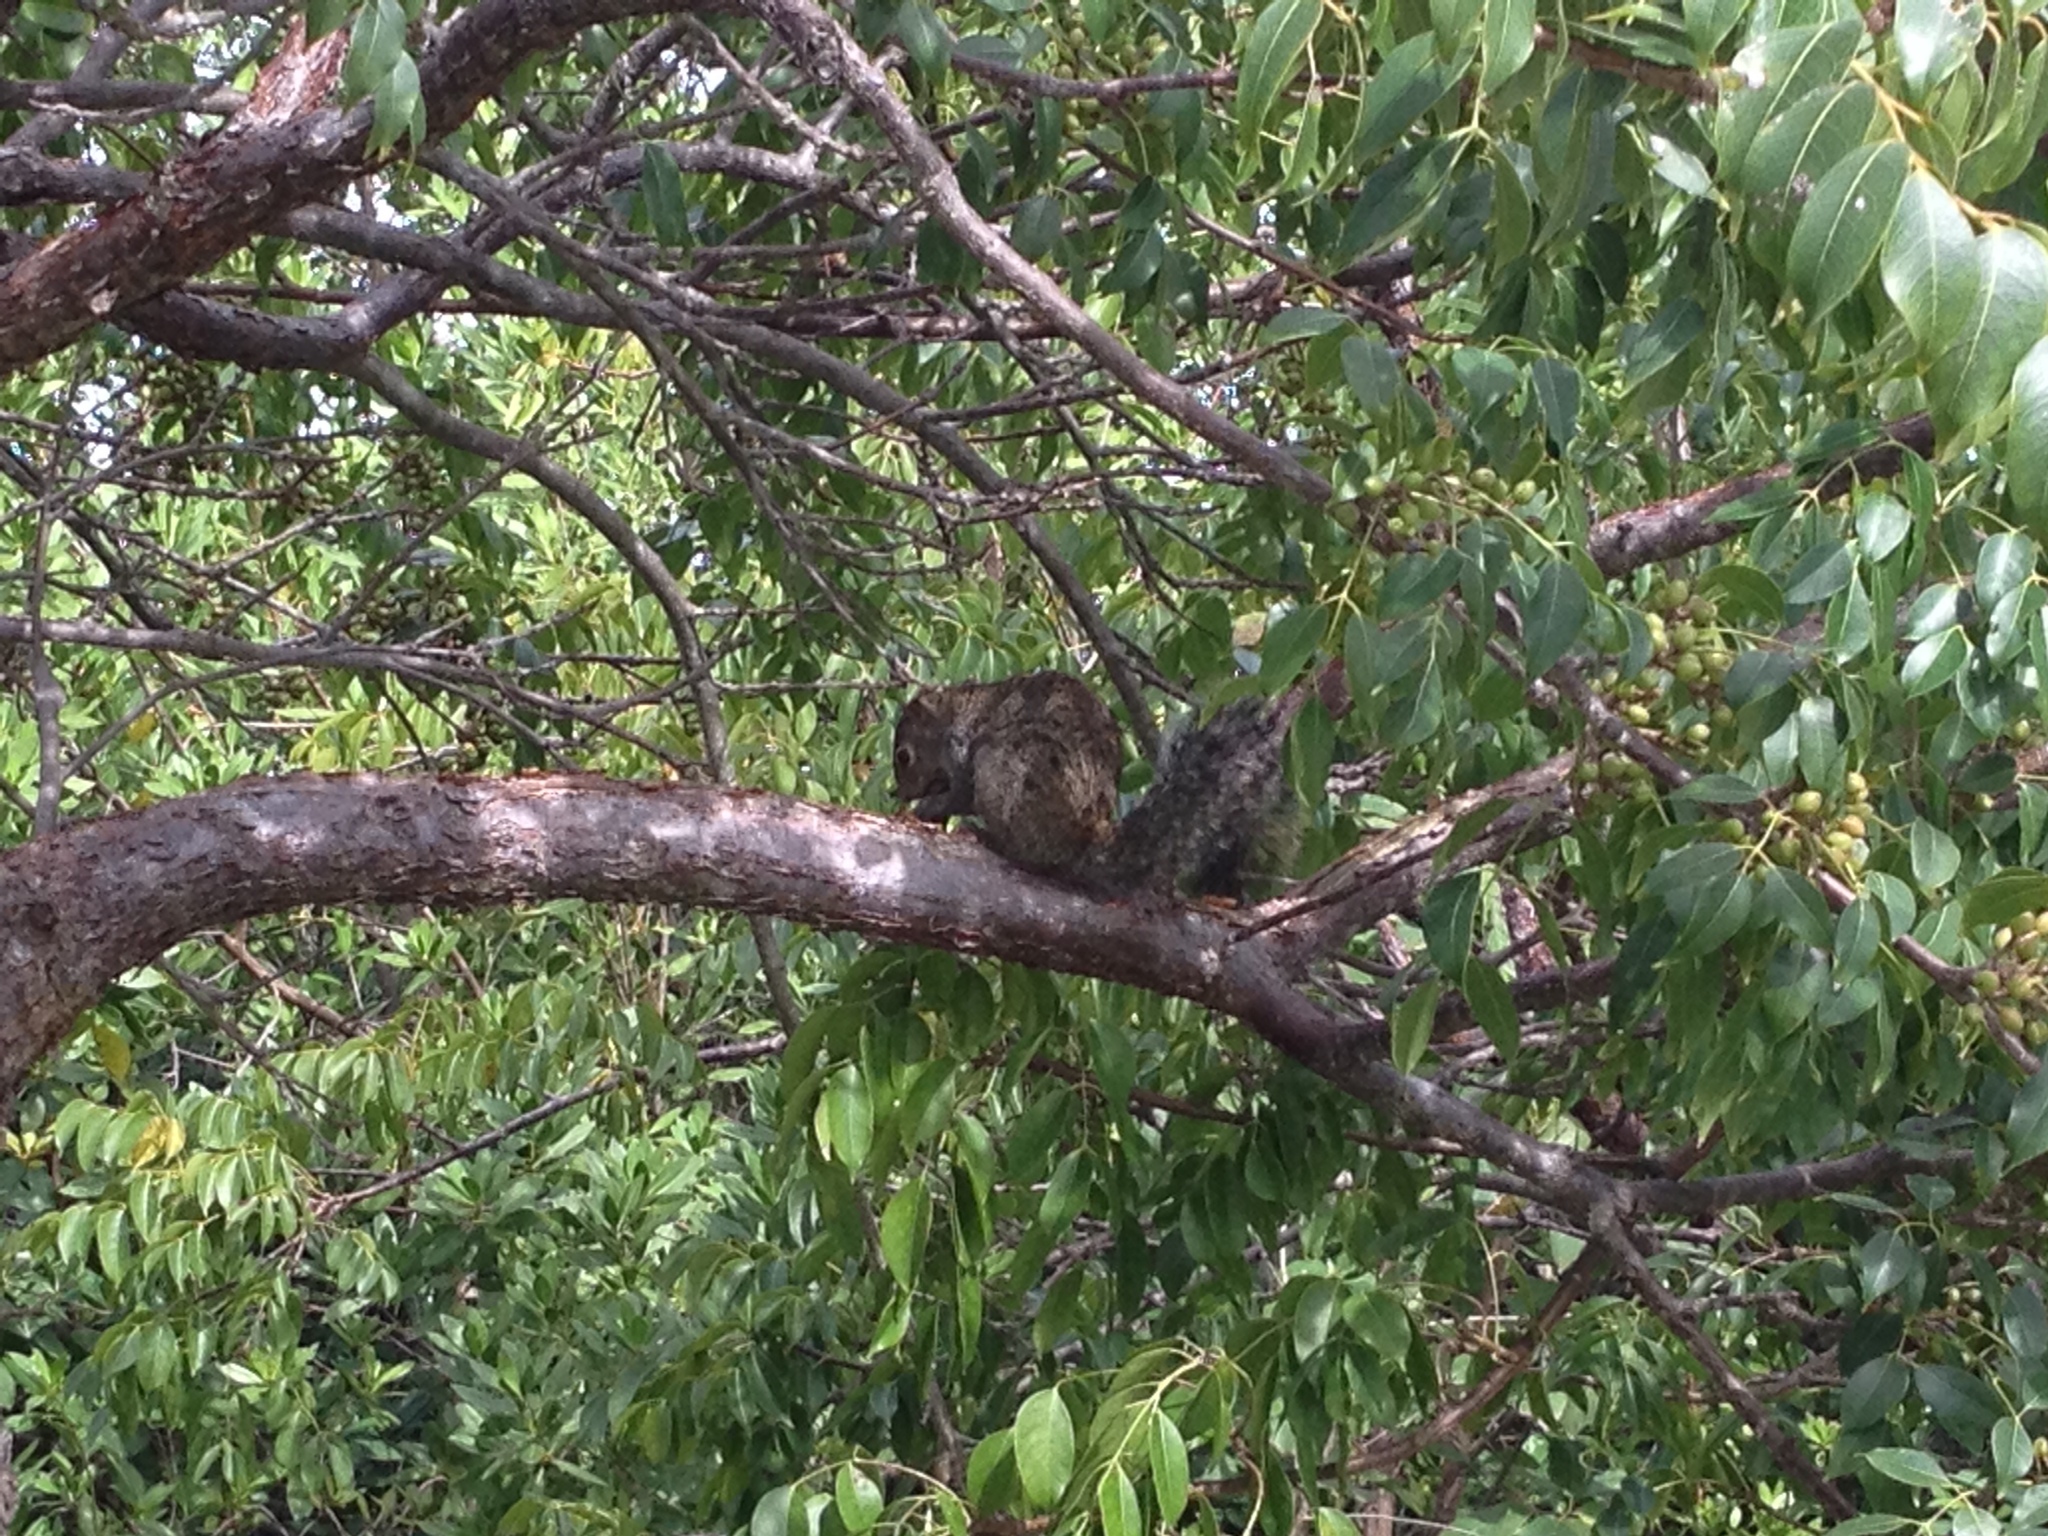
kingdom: Animalia
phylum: Chordata
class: Mammalia
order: Rodentia
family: Sciuridae
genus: Sciurus
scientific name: Sciurus yucatanensis
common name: Yucatan squirrel
